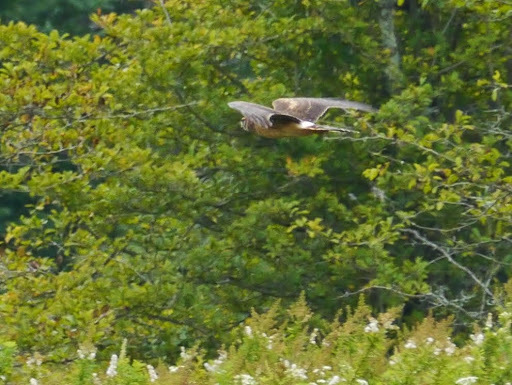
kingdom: Animalia
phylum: Chordata
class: Aves
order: Accipitriformes
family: Accipitridae
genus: Circus
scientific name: Circus cyaneus
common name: Hen harrier
